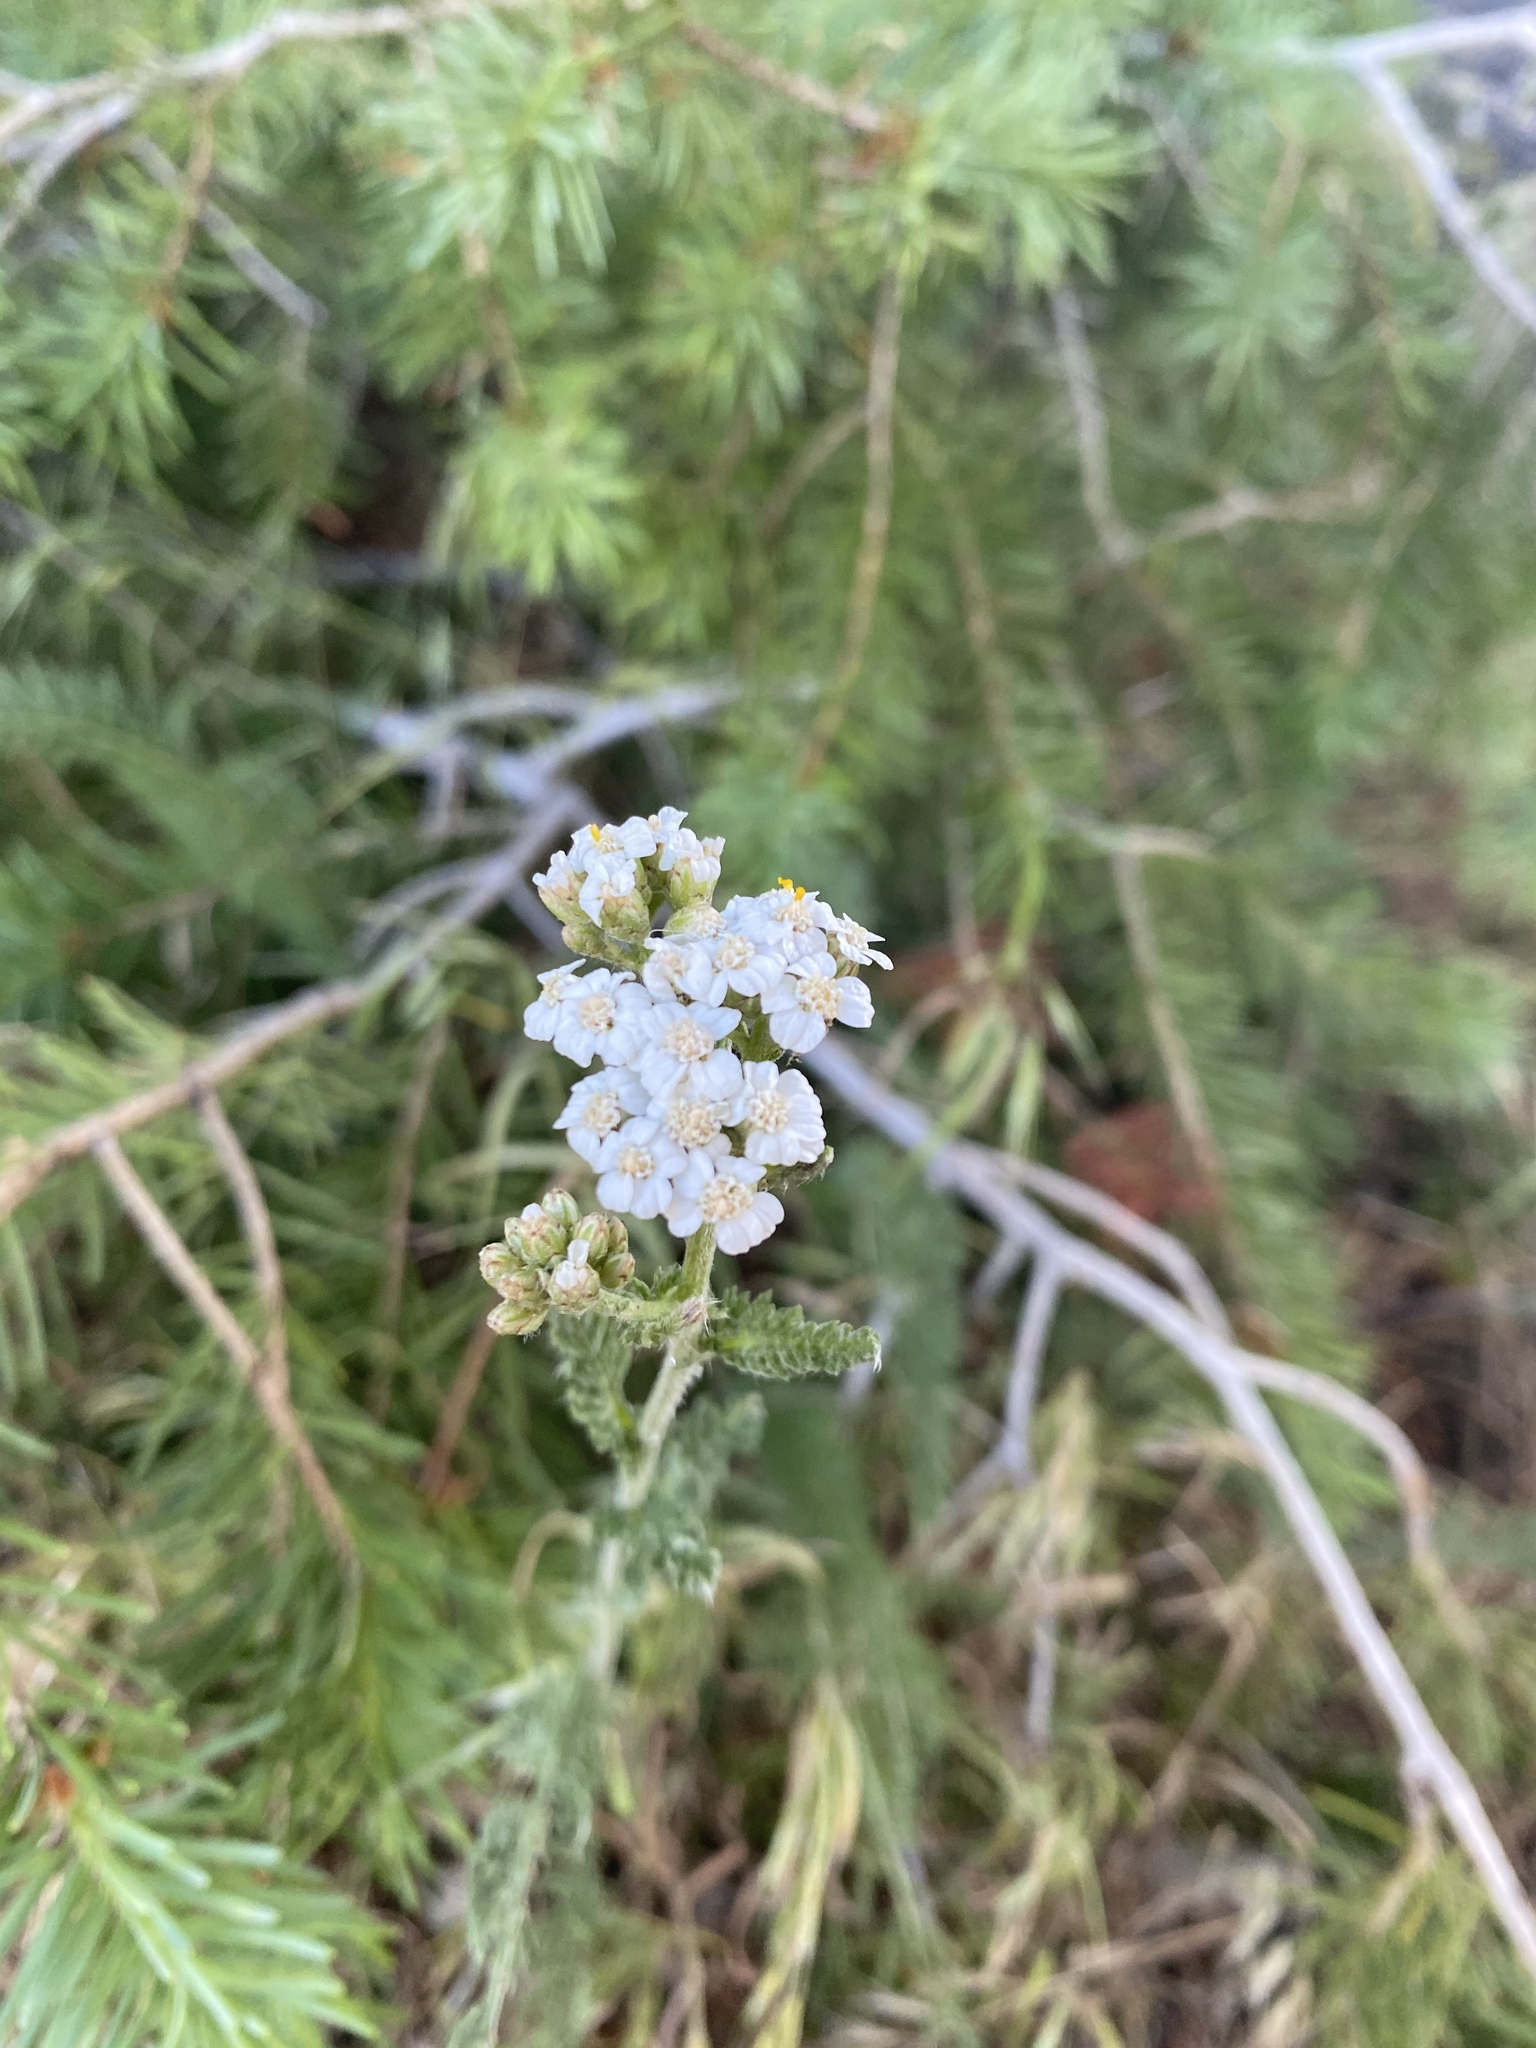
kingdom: Plantae
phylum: Tracheophyta
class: Magnoliopsida
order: Asterales
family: Asteraceae
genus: Achillea
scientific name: Achillea millefolium
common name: Yarrow
